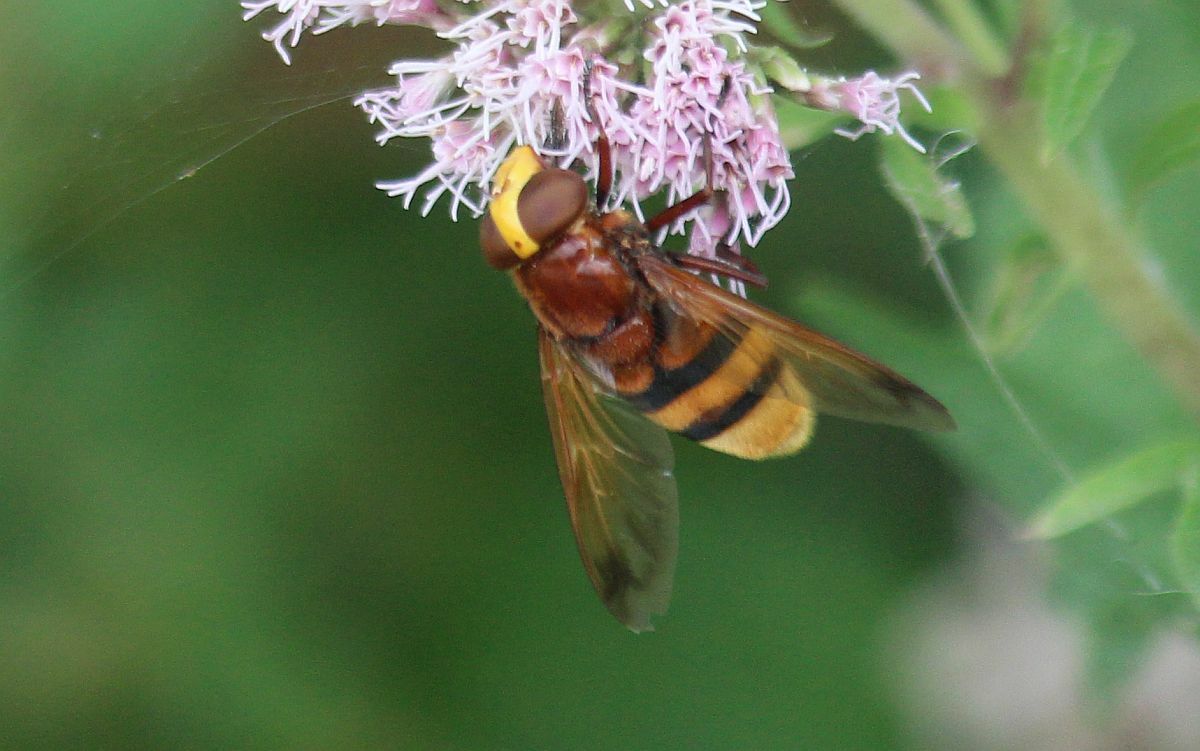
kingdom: Animalia
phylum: Arthropoda
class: Insecta
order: Diptera
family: Syrphidae
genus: Volucella
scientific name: Volucella zonaria
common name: Hornet hoverfly
